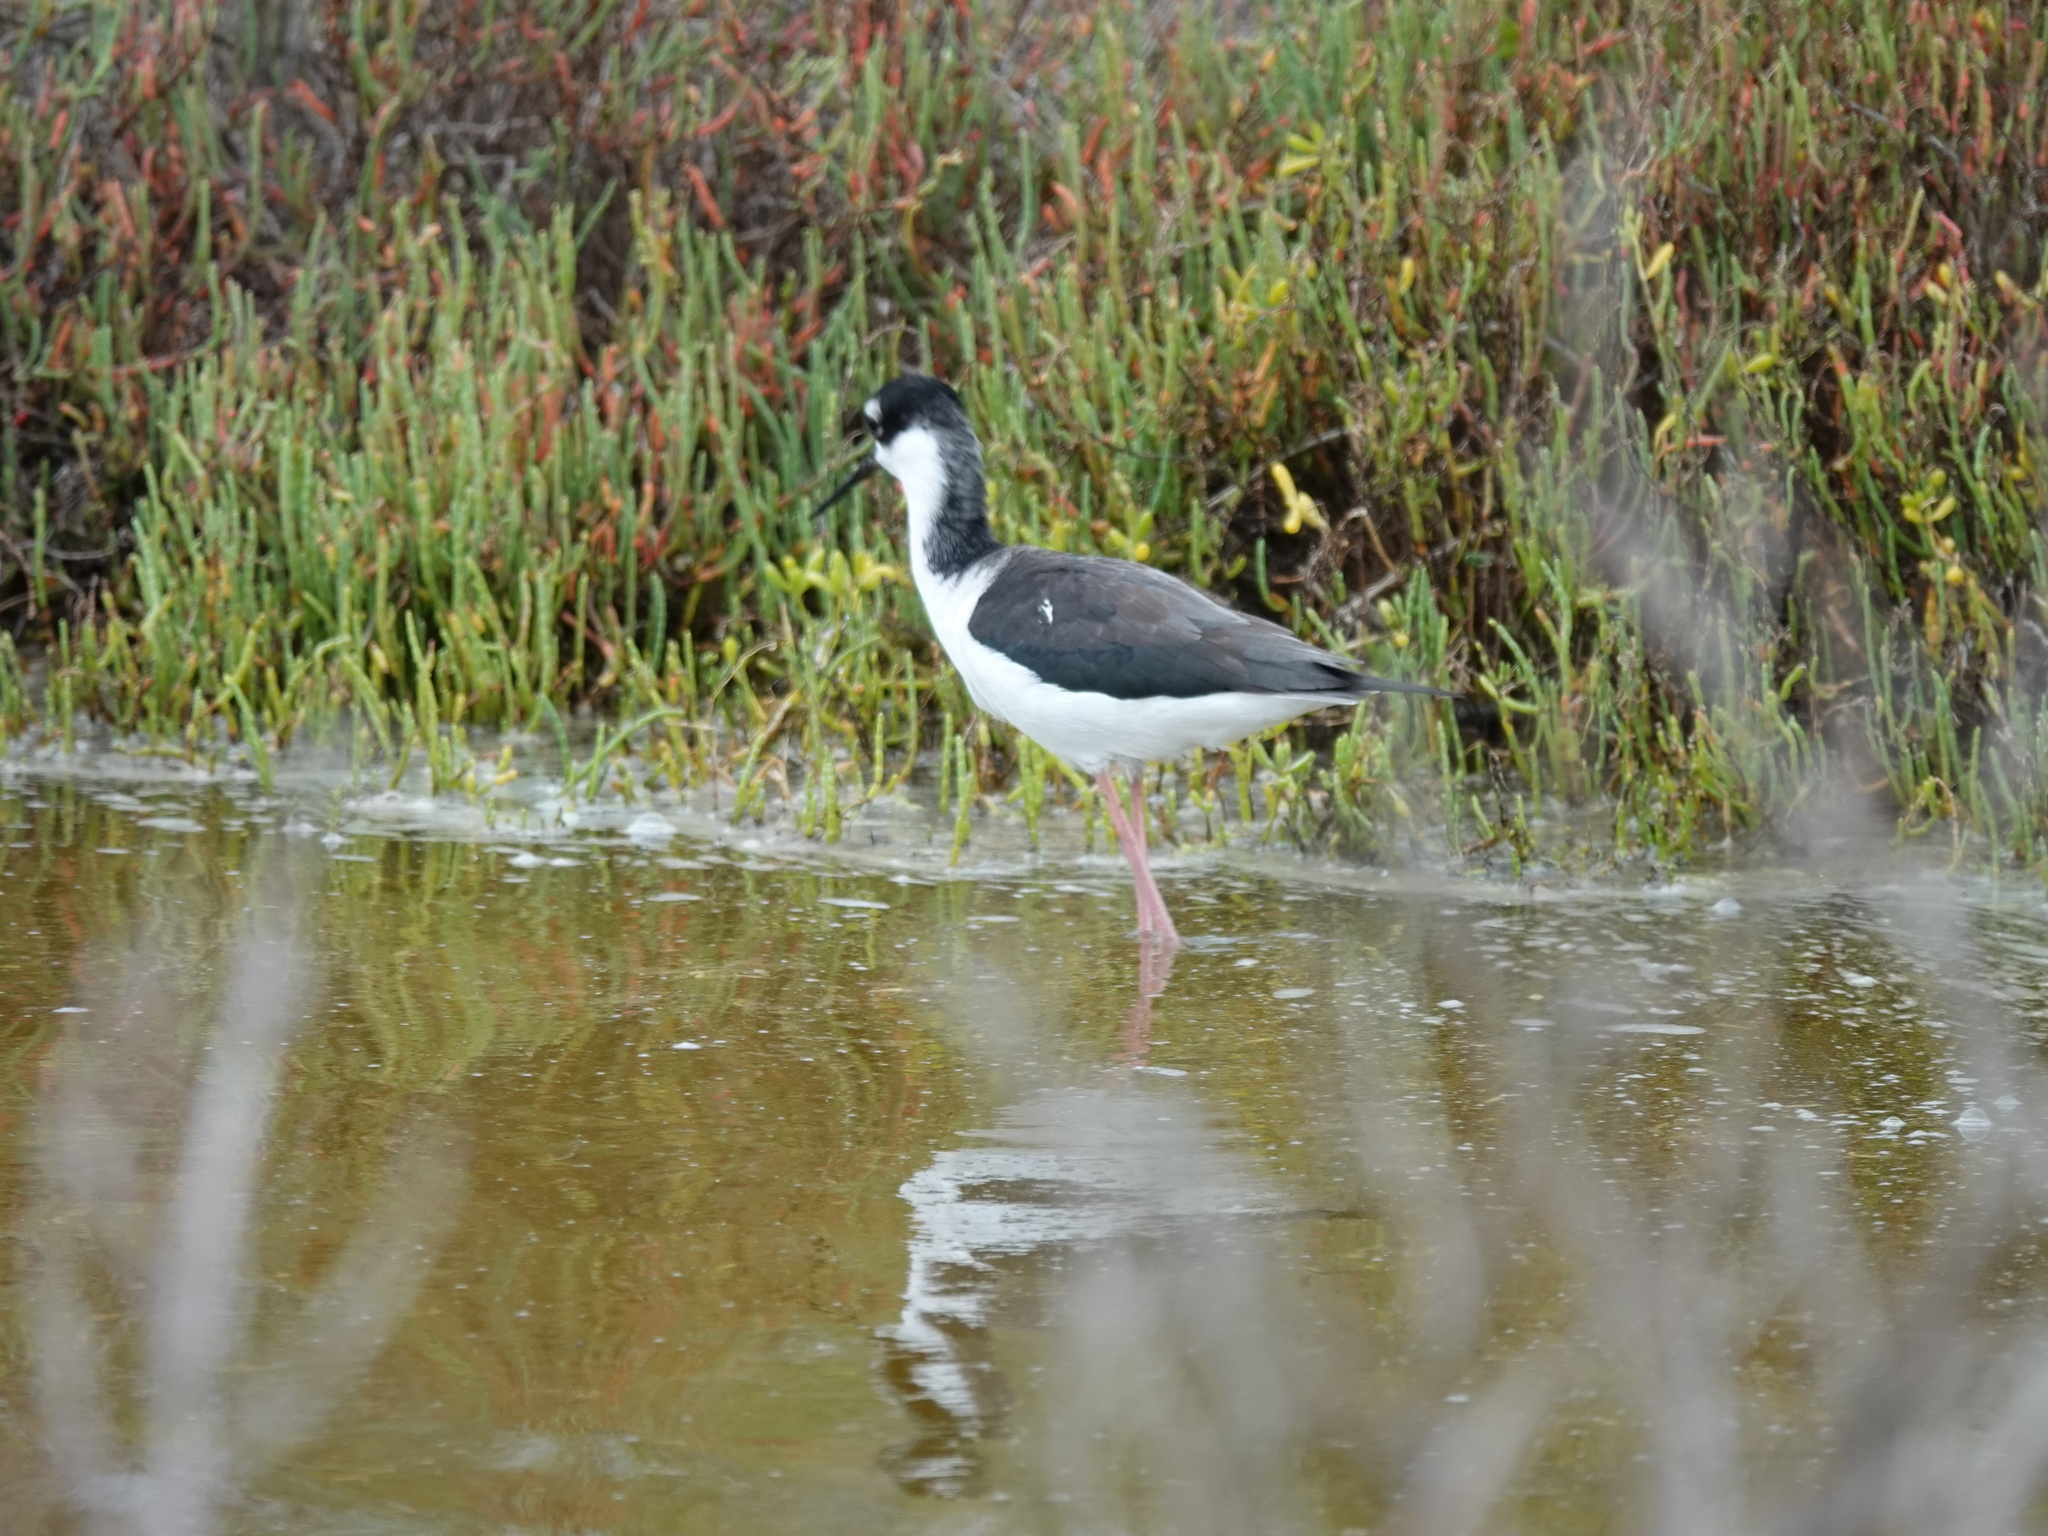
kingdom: Animalia
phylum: Chordata
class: Aves
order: Charadriiformes
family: Recurvirostridae
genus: Himantopus
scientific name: Himantopus mexicanus
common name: Black-necked stilt
